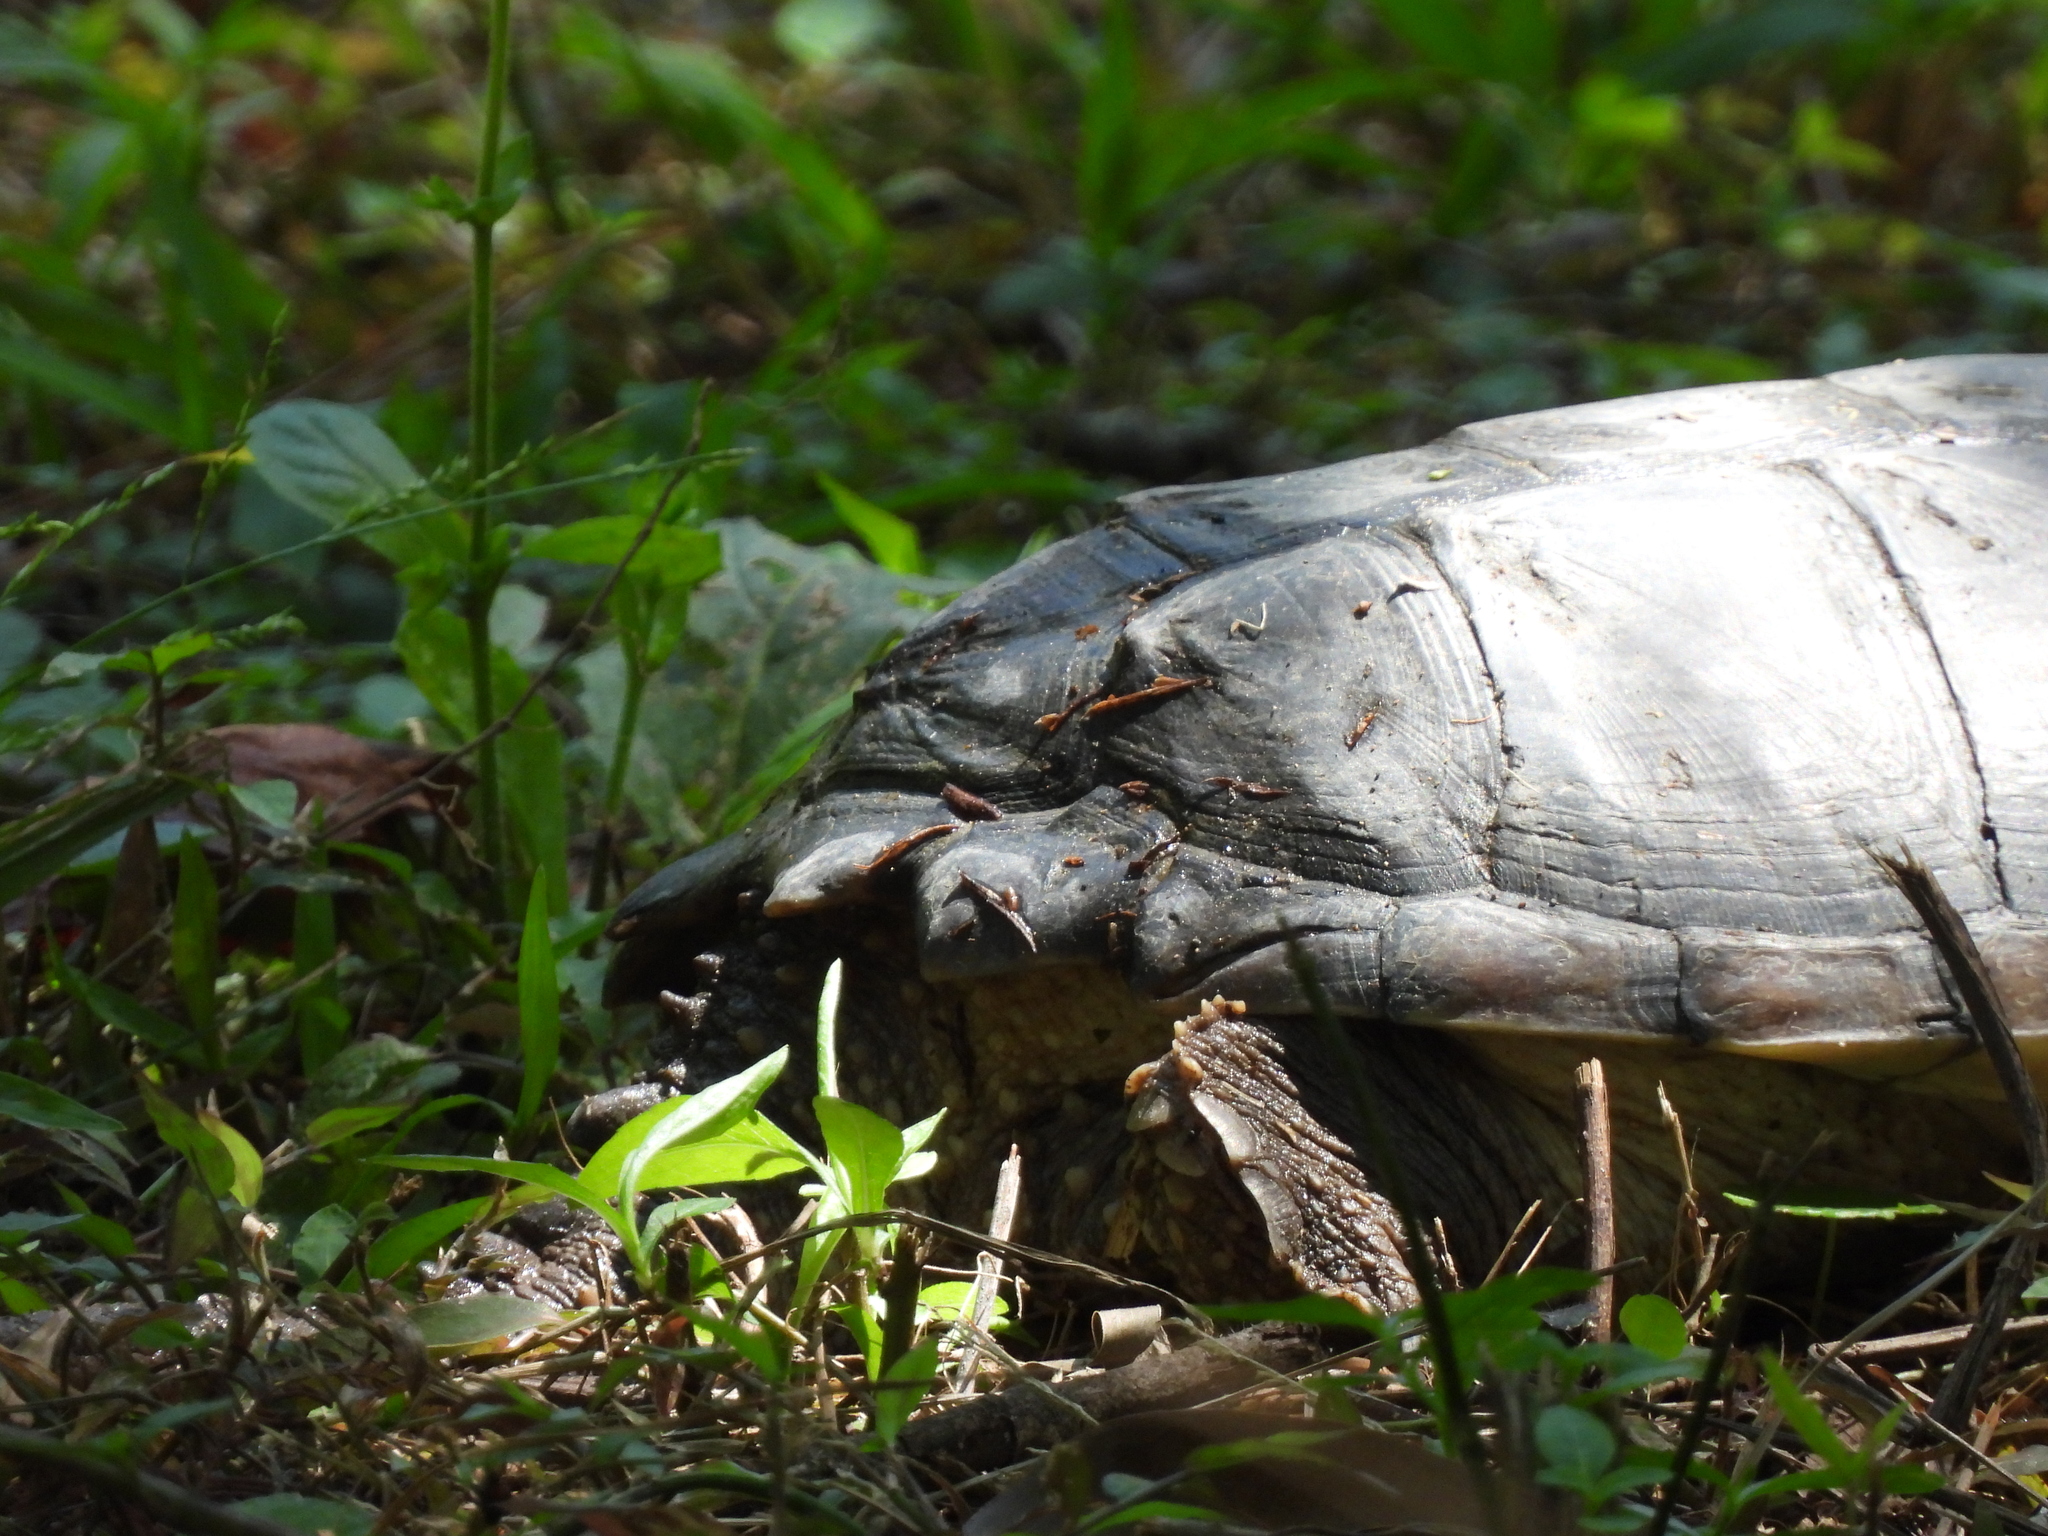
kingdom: Animalia
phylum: Chordata
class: Testudines
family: Chelydridae
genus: Chelydra
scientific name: Chelydra serpentina
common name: Common snapping turtle
